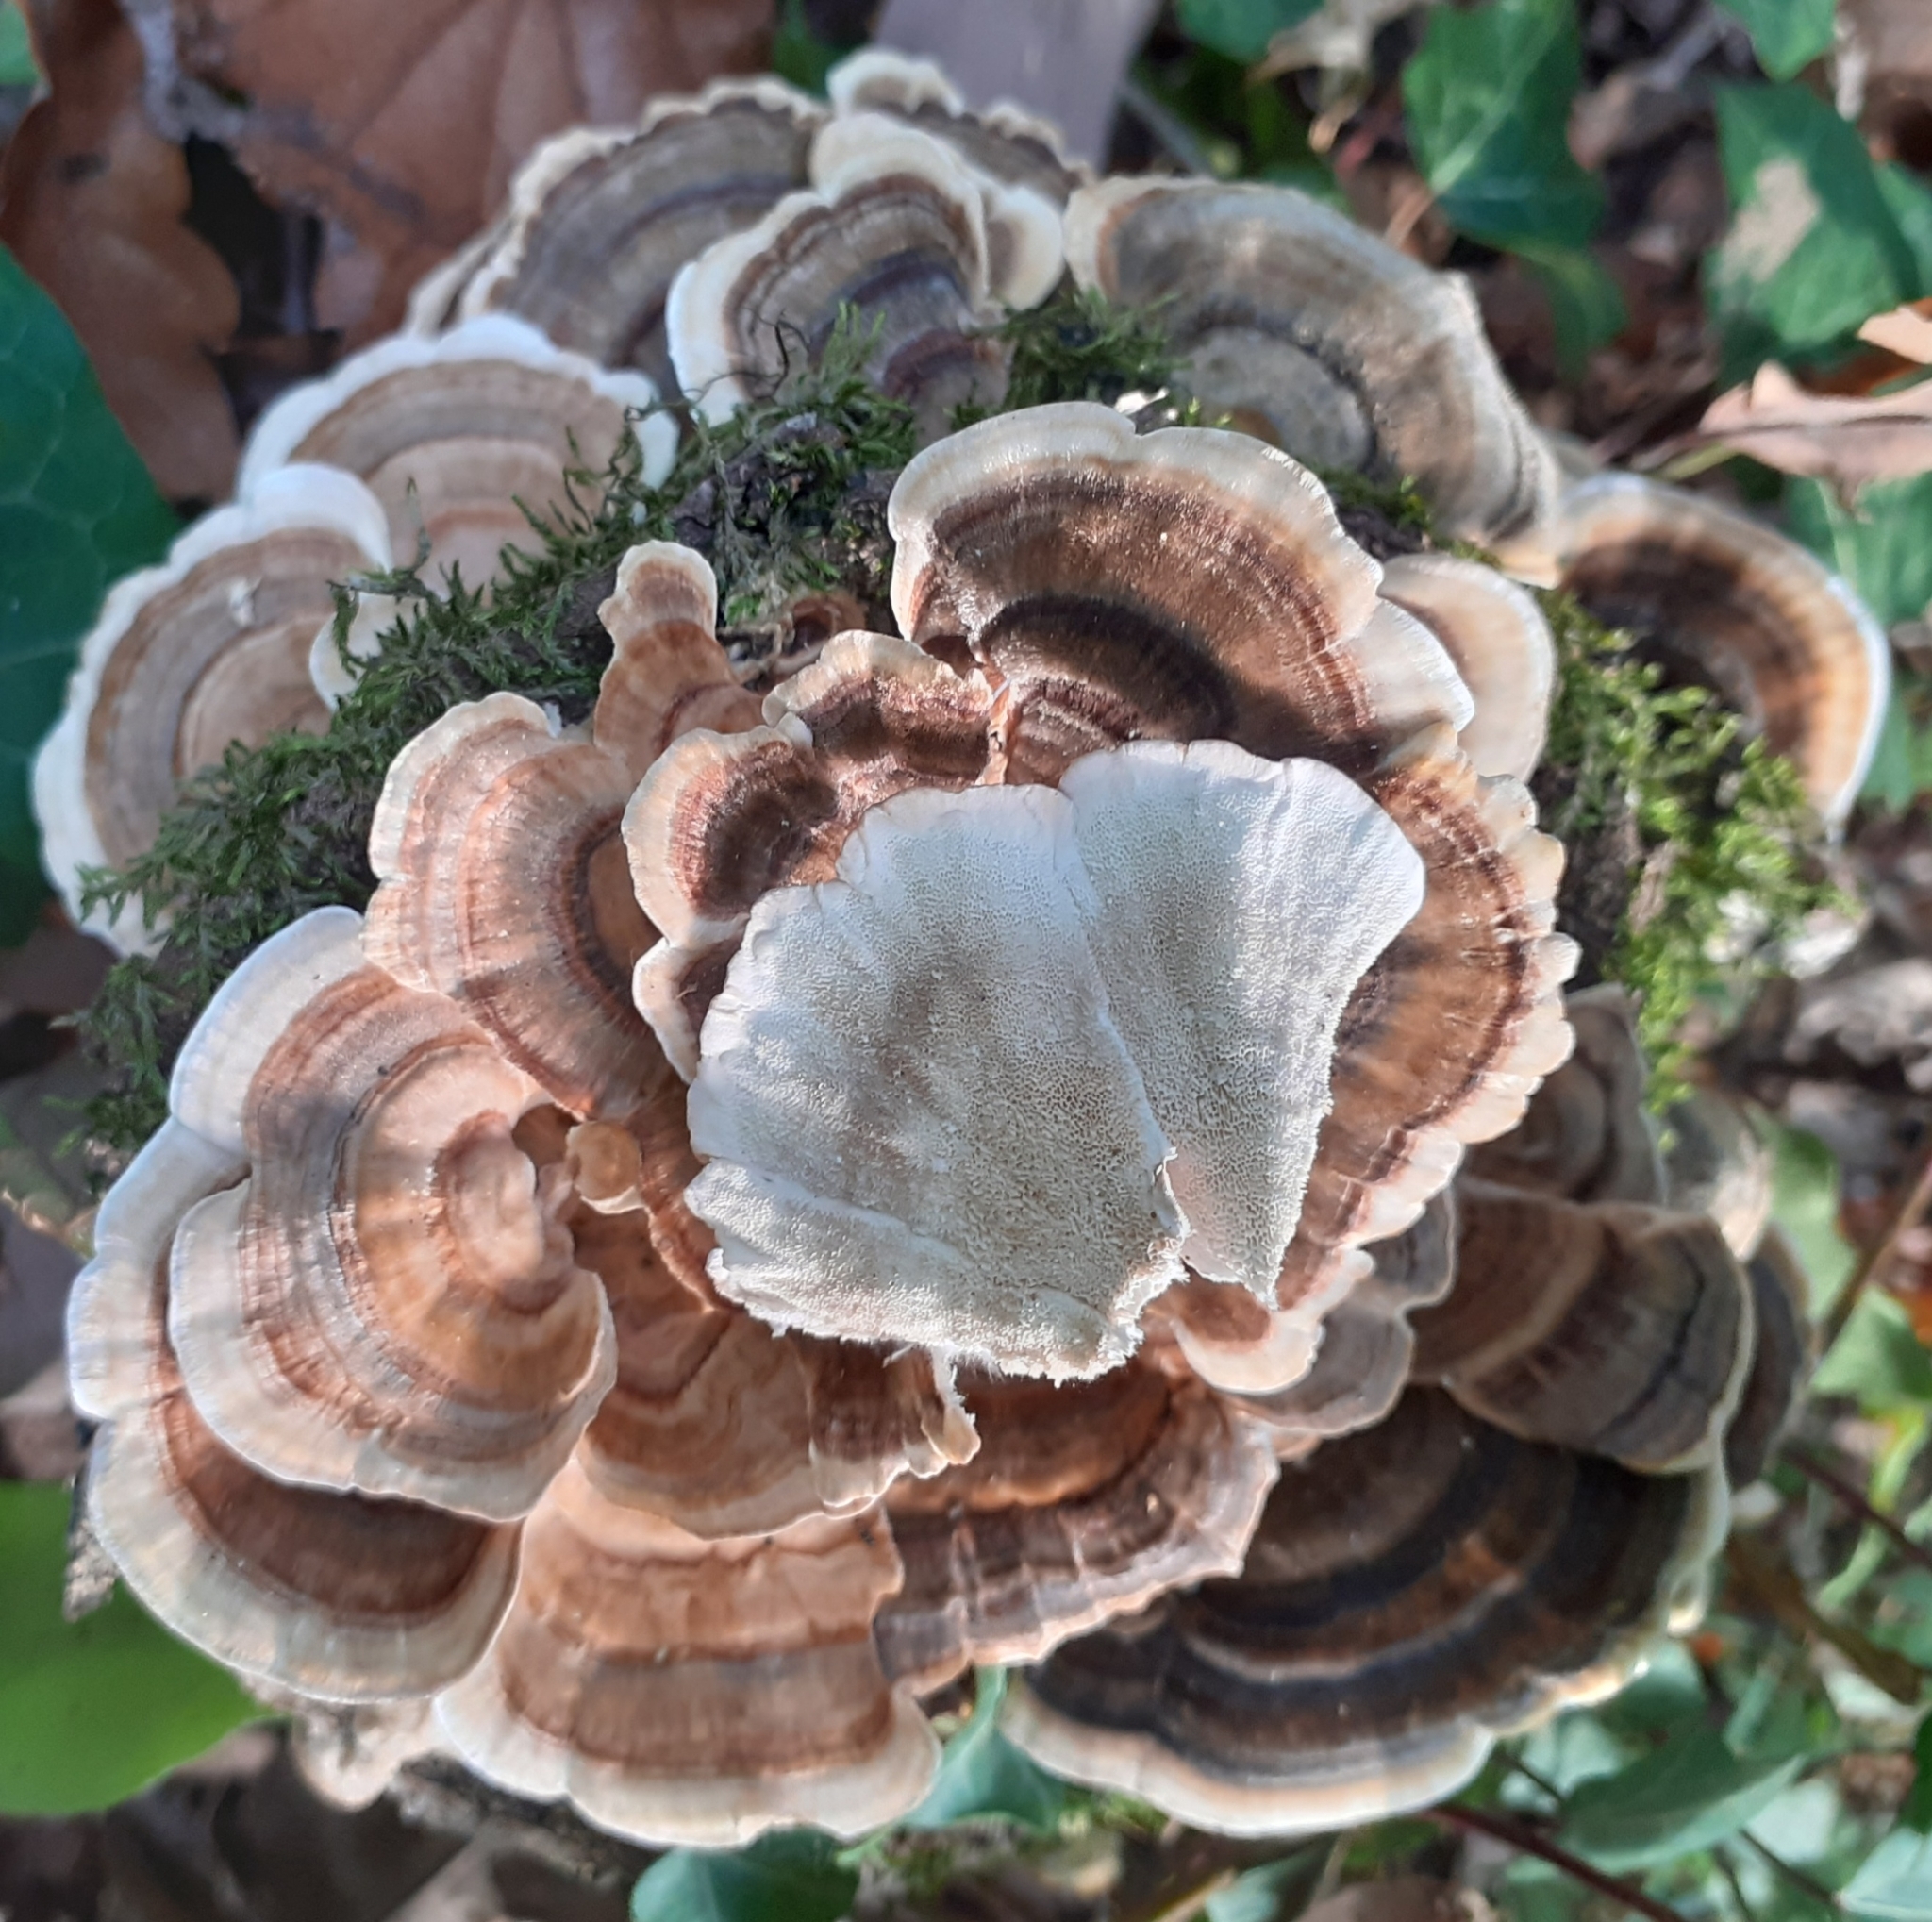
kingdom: Fungi
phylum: Basidiomycota
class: Agaricomycetes
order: Polyporales
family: Polyporaceae
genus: Trametes
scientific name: Trametes versicolor
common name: Turkeytail
